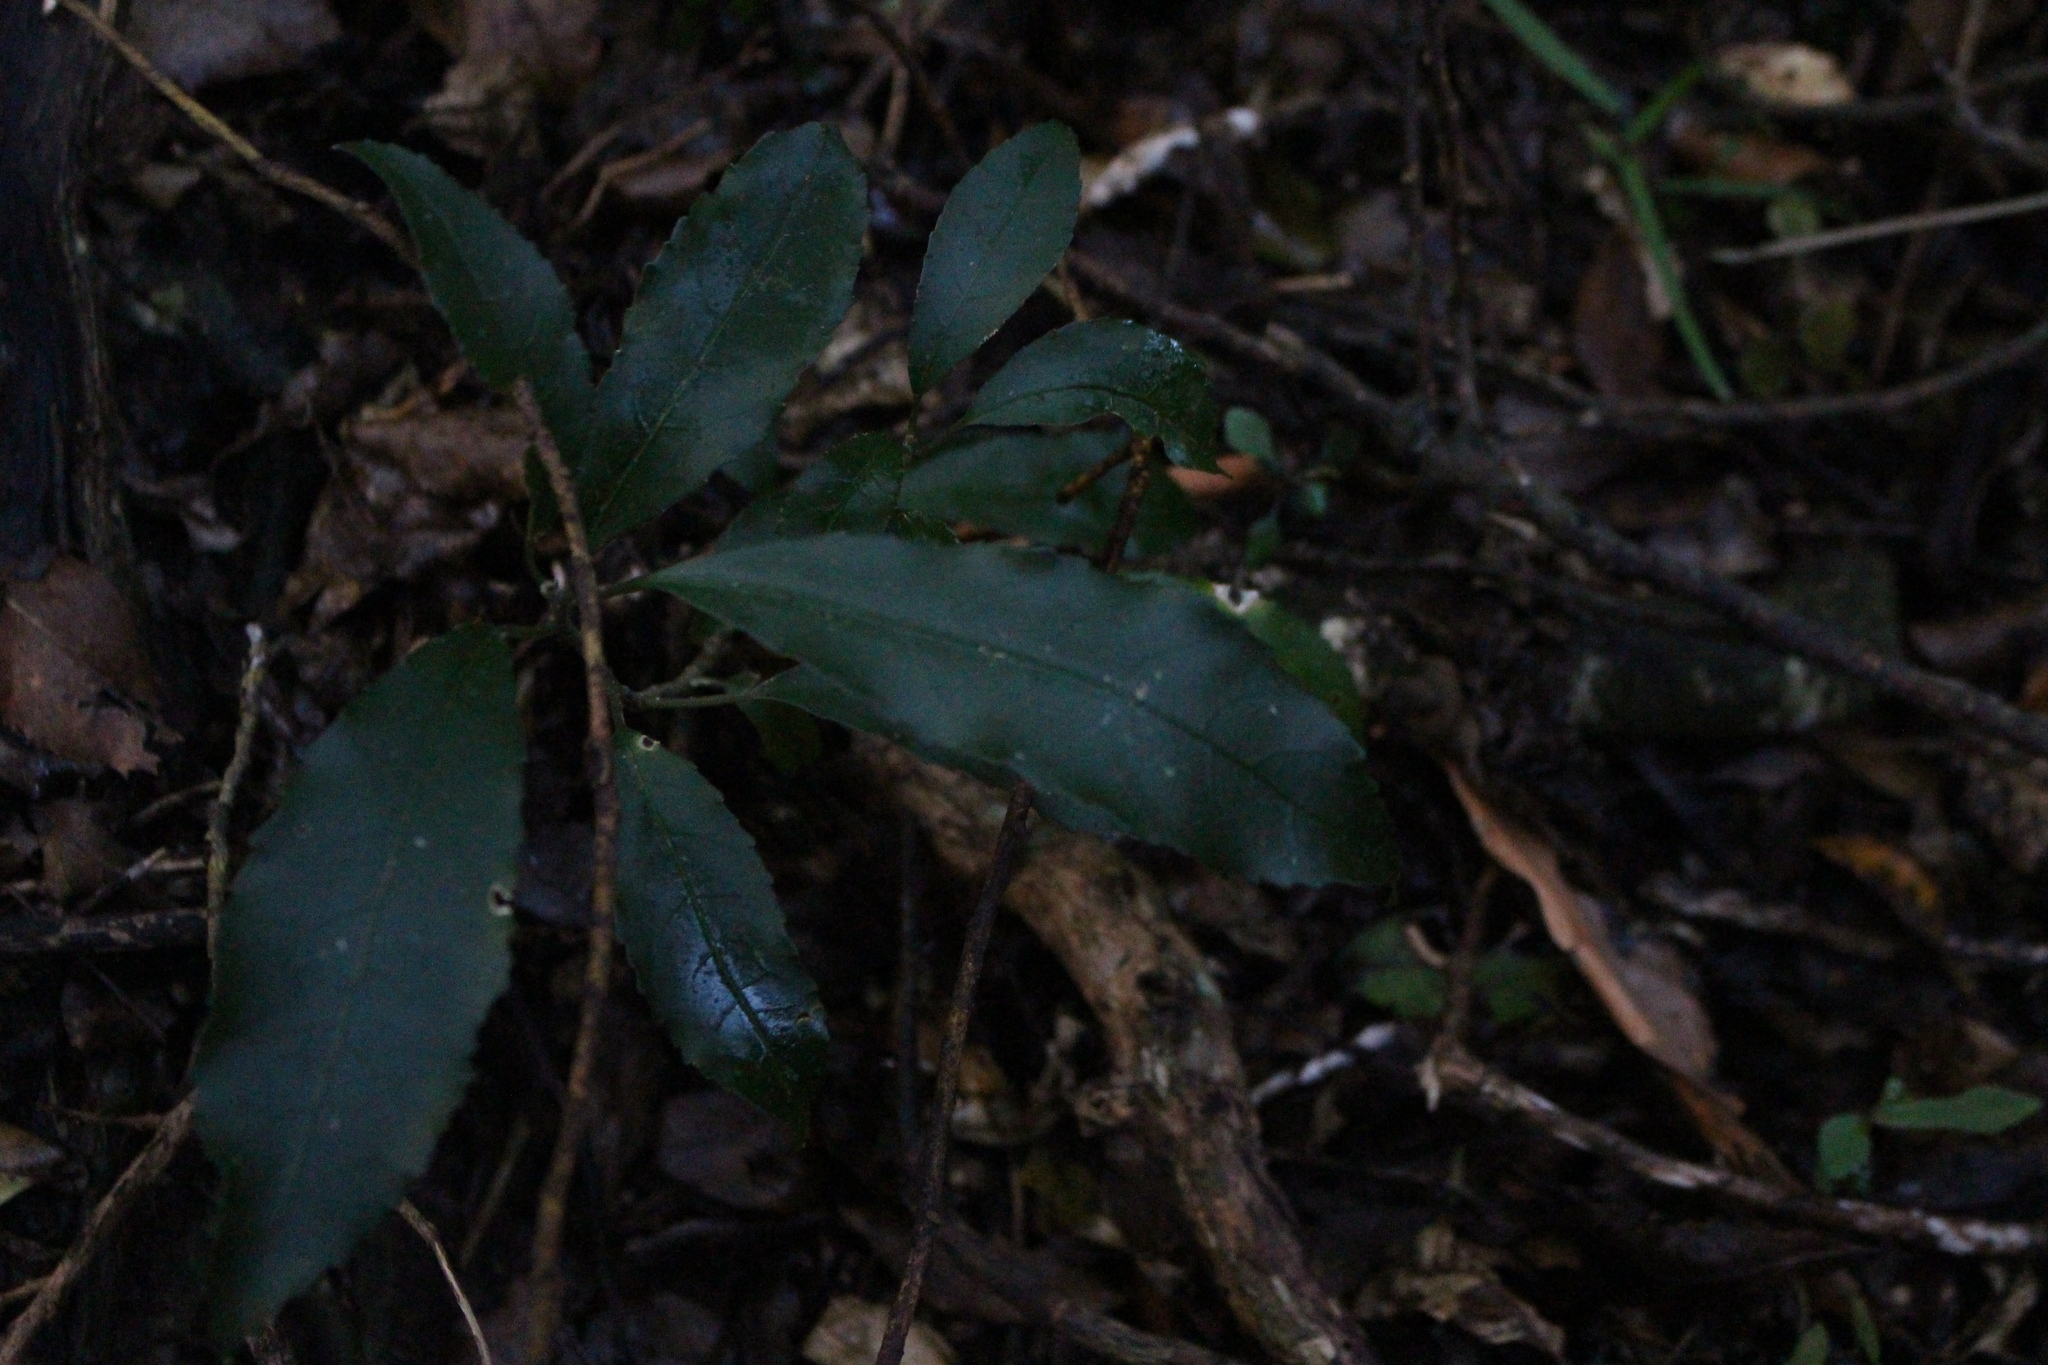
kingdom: Plantae
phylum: Tracheophyta
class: Magnoliopsida
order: Malpighiales
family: Violaceae
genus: Melicytus
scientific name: Melicytus ramiflorus
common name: Mahoe
